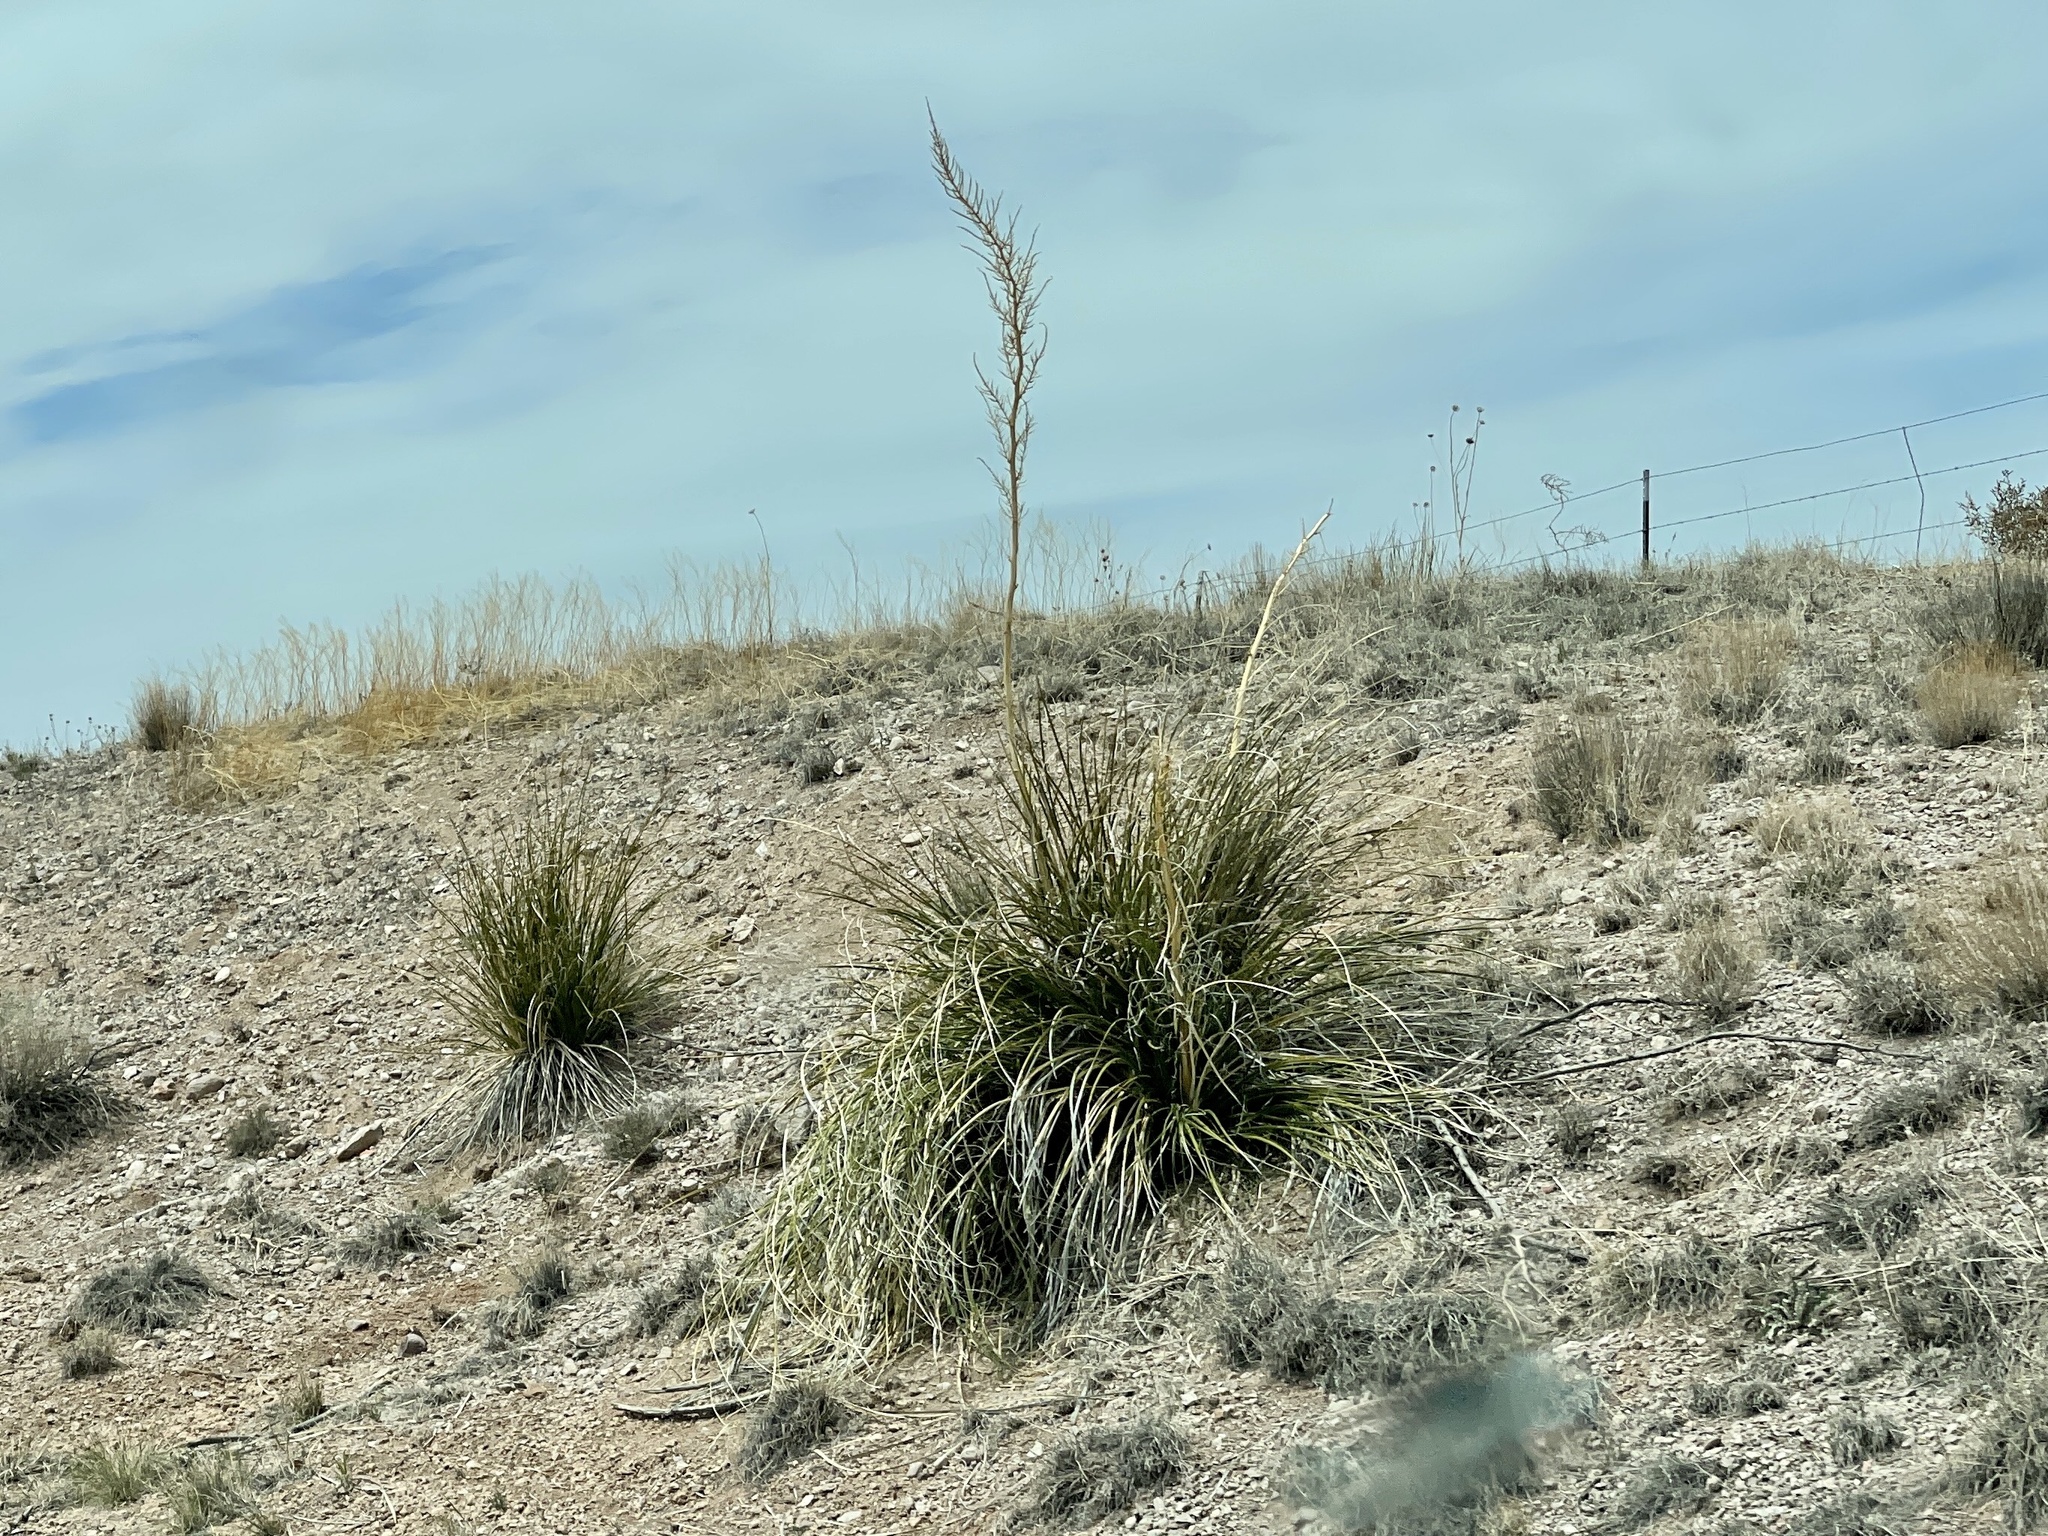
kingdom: Plantae
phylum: Tracheophyta
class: Liliopsida
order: Asparagales
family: Asparagaceae
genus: Nolina
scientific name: Nolina microcarpa
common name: Bear-grass
